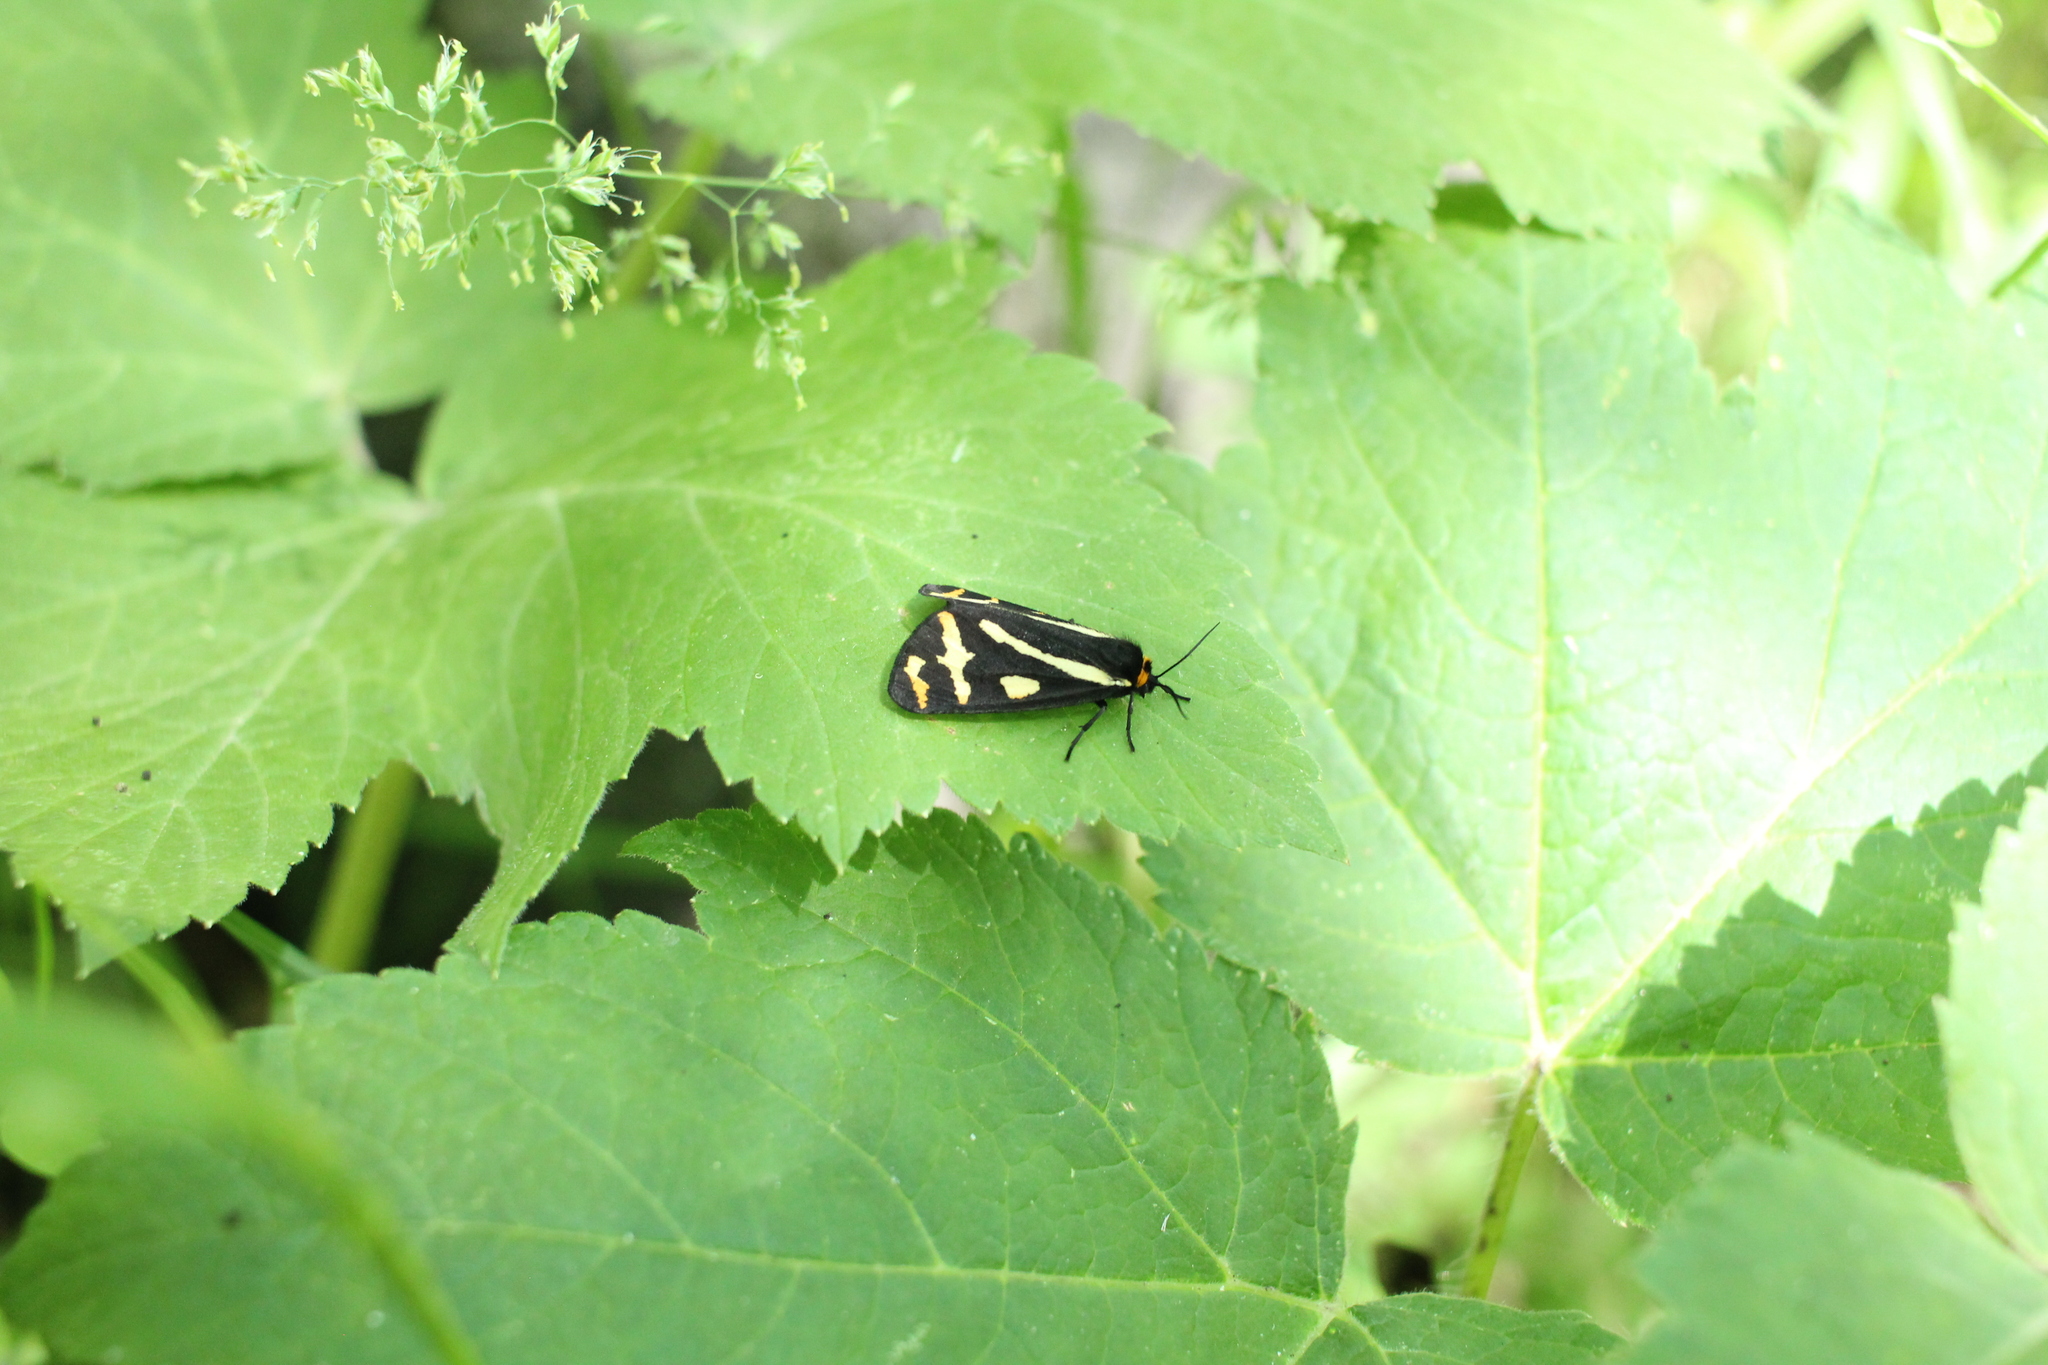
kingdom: Animalia
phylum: Arthropoda
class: Insecta
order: Lepidoptera
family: Erebidae
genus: Parasemia
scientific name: Parasemia plantaginis
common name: Wood tiger
